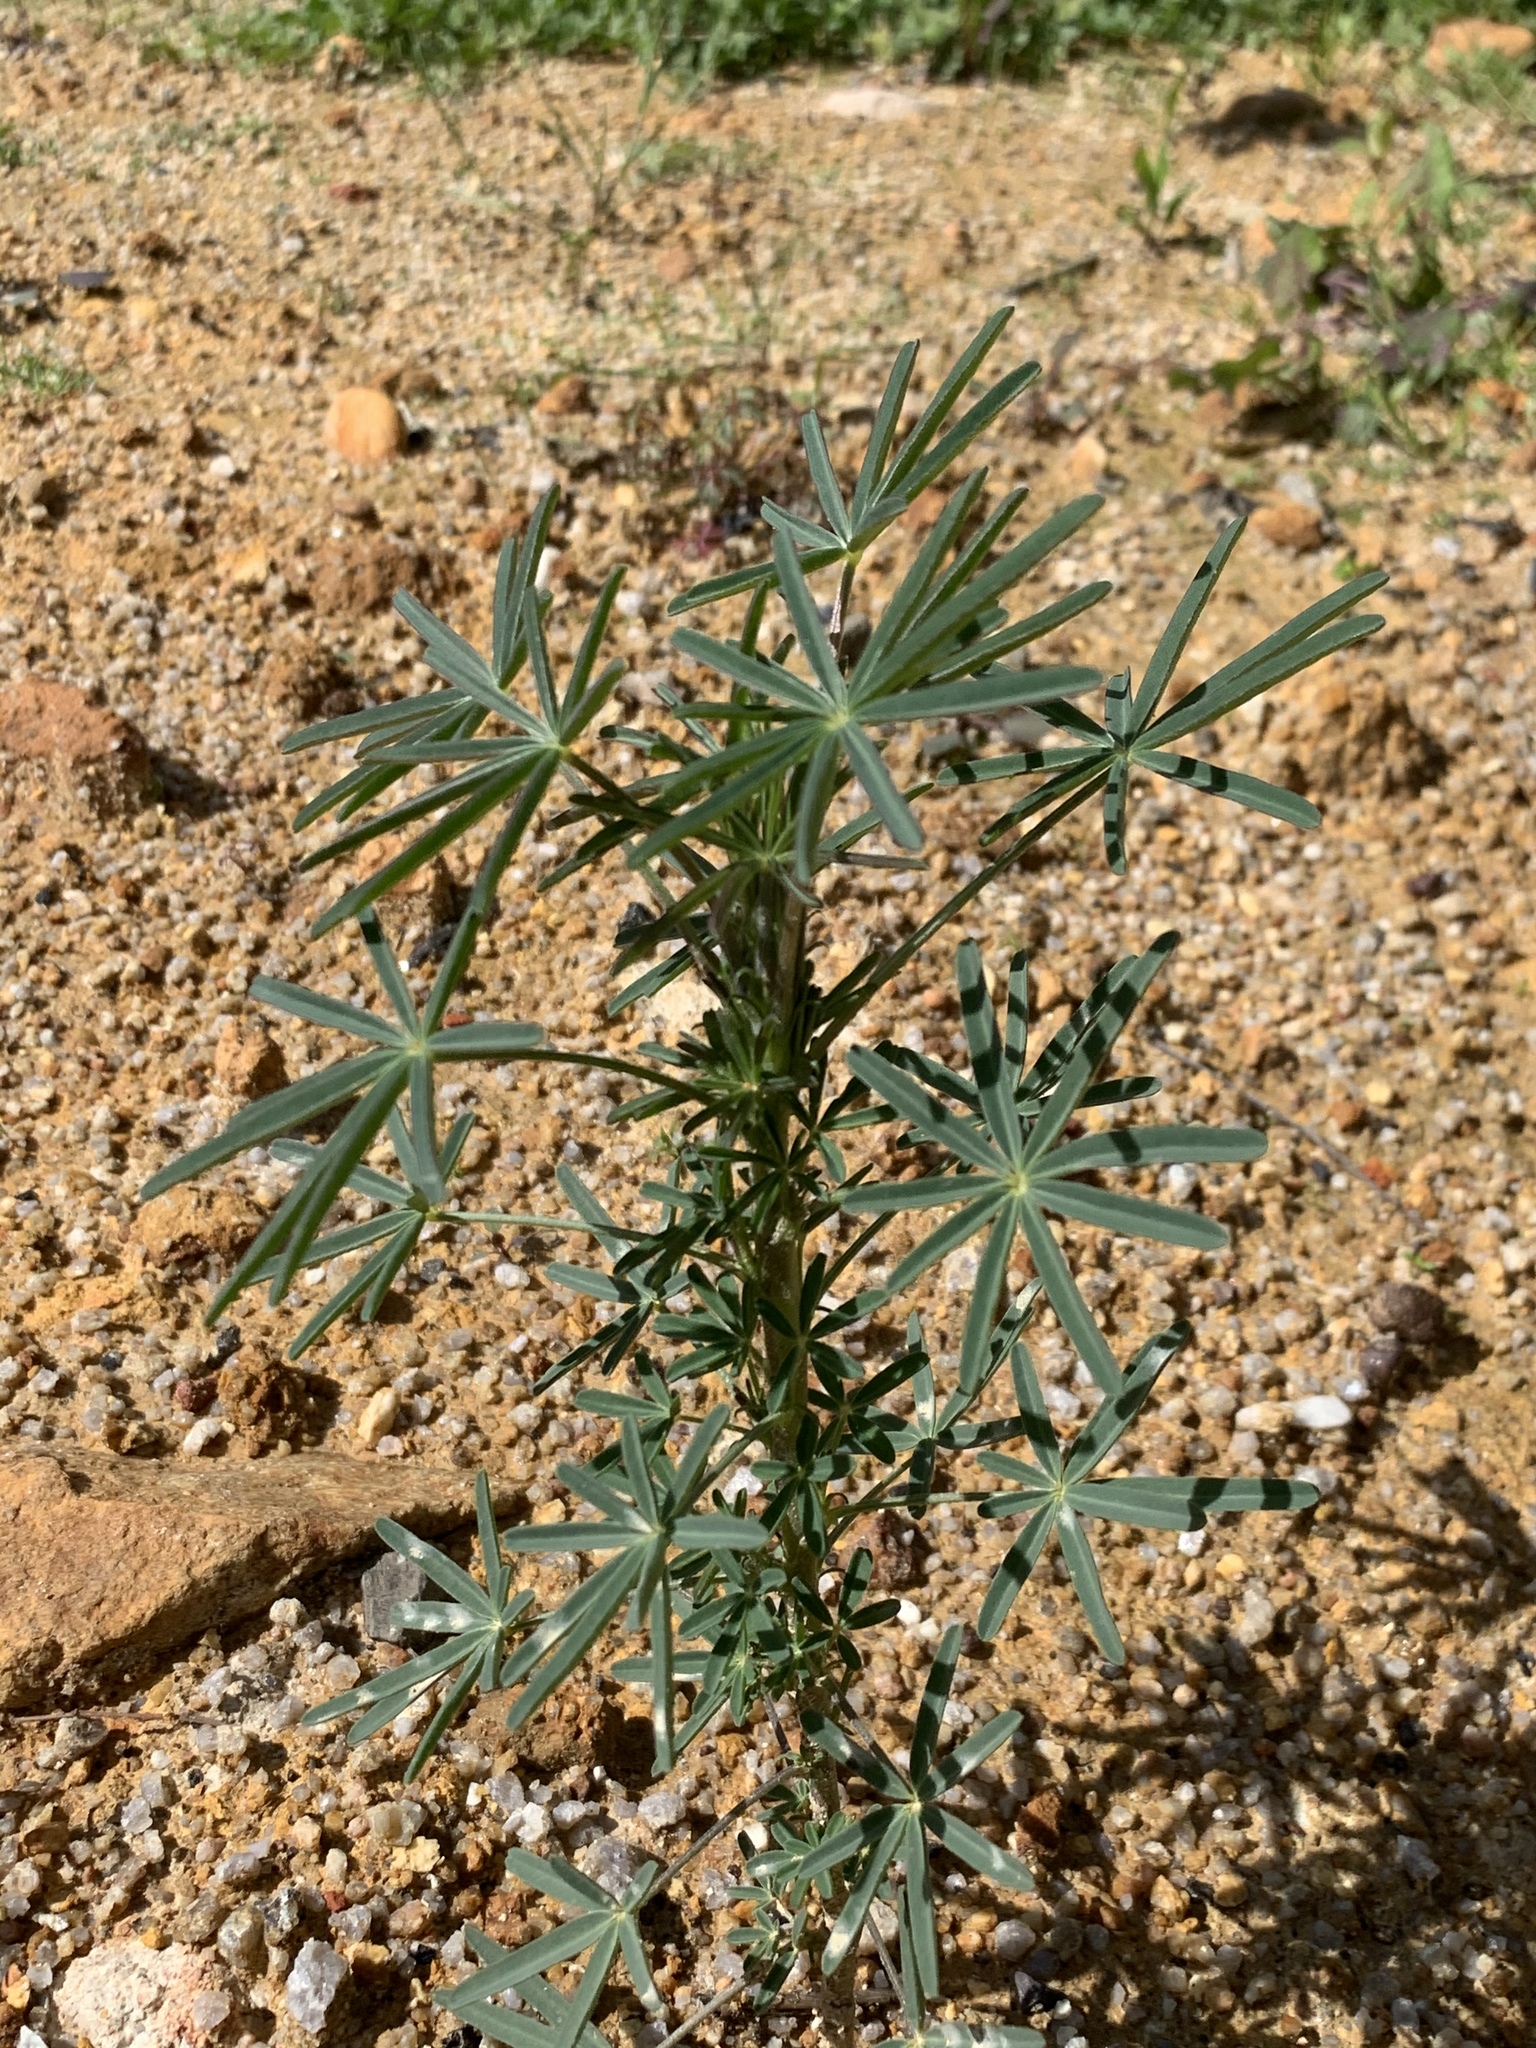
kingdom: Plantae
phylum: Tracheophyta
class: Magnoliopsida
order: Fabales
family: Fabaceae
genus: Lupinus
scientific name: Lupinus angustifolius
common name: Narrow-leaved lupin
